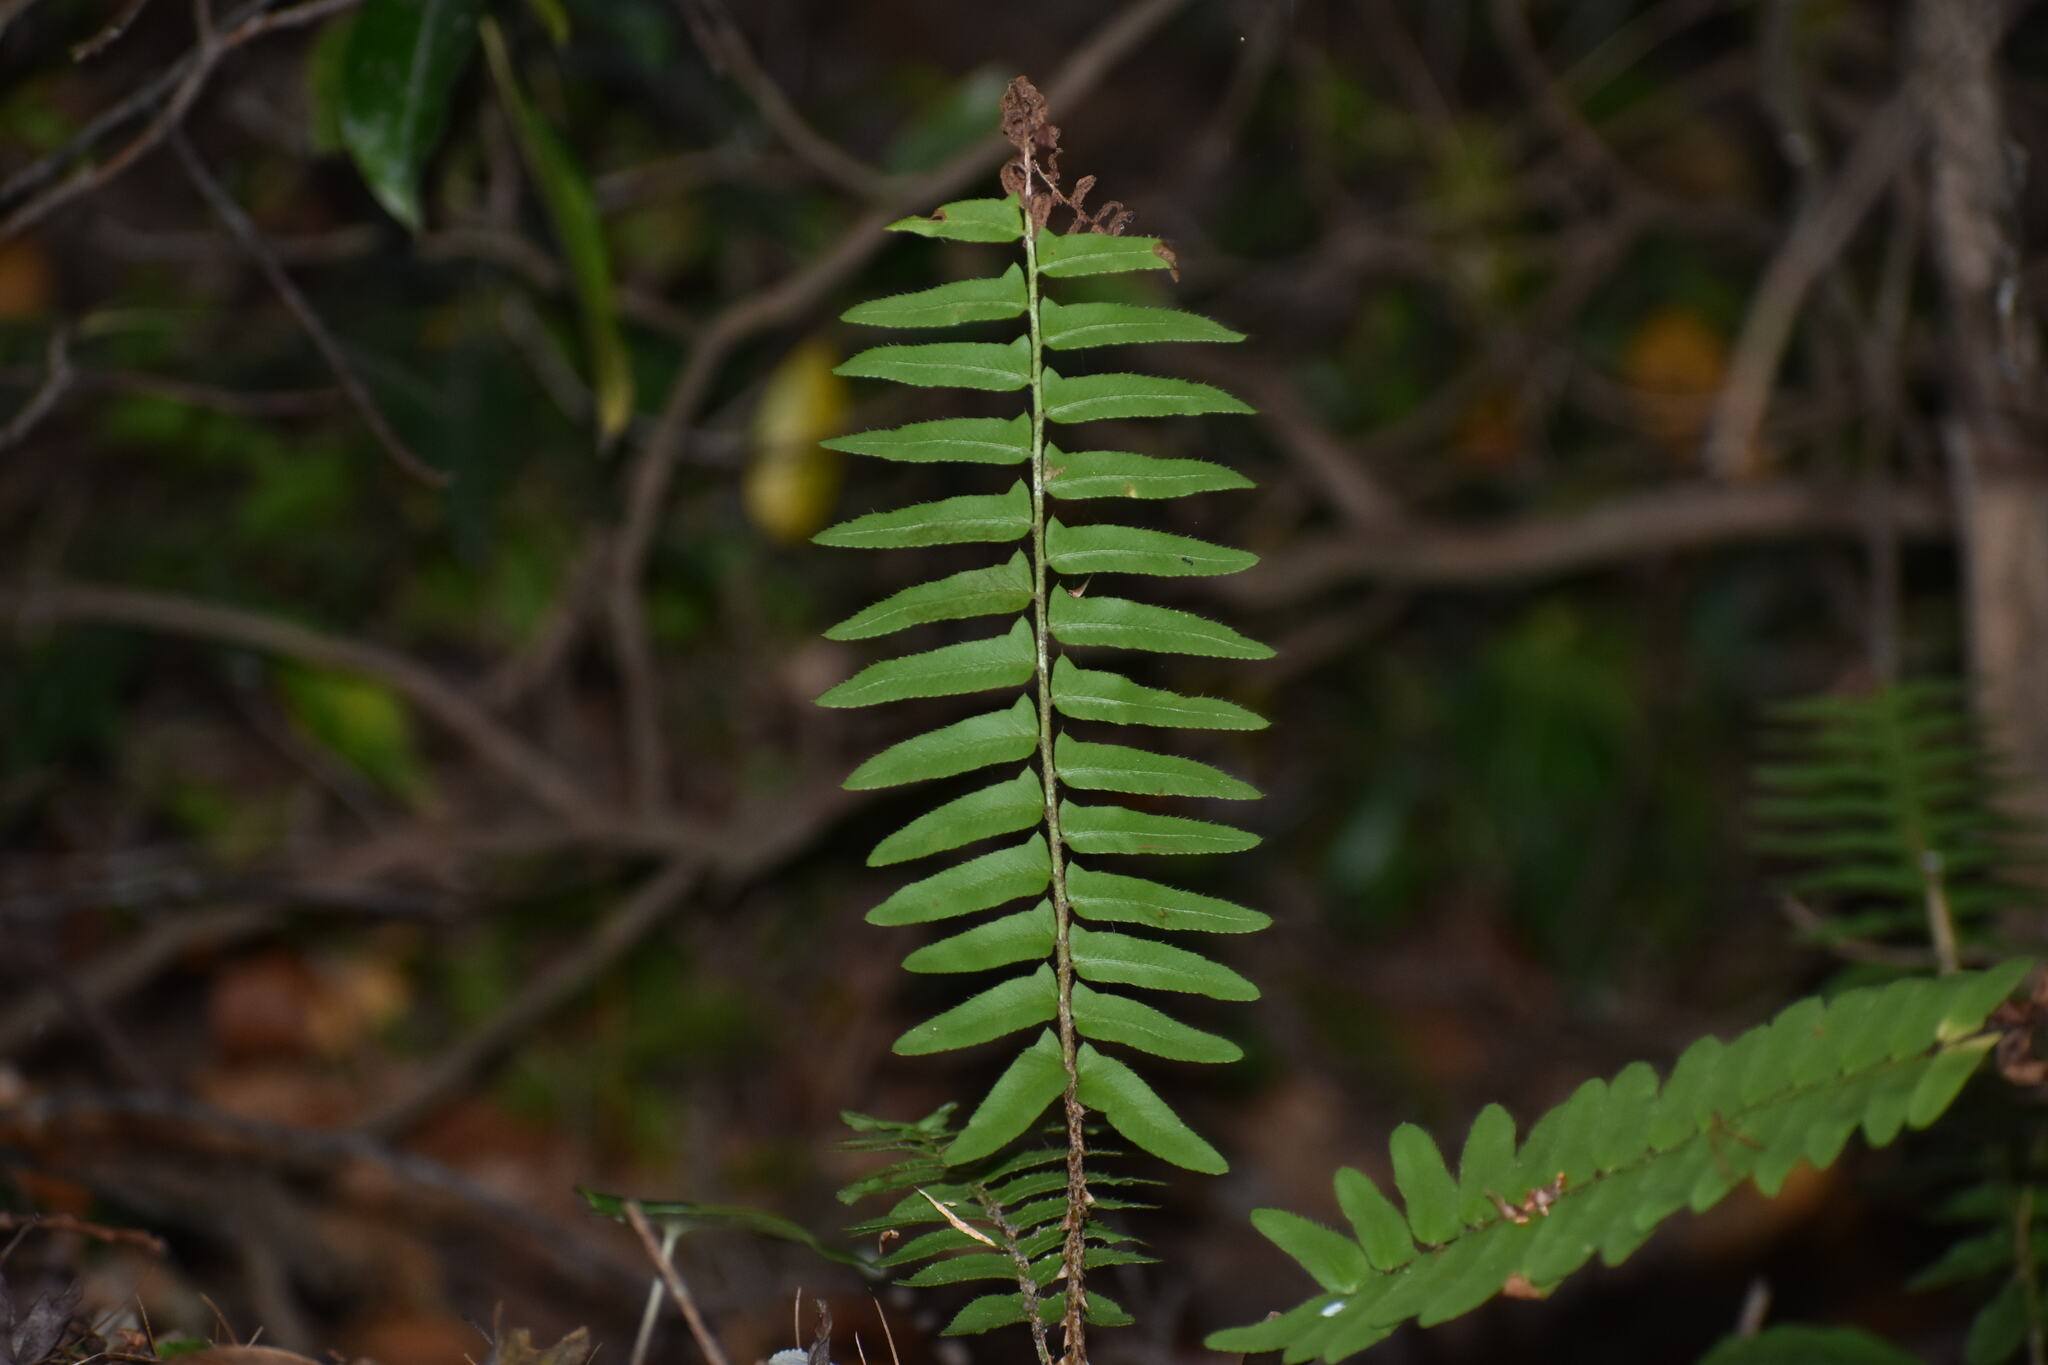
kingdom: Plantae
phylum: Tracheophyta
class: Polypodiopsida
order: Polypodiales
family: Dryopteridaceae
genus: Polystichum
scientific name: Polystichum acrostichoides
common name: Christmas fern
